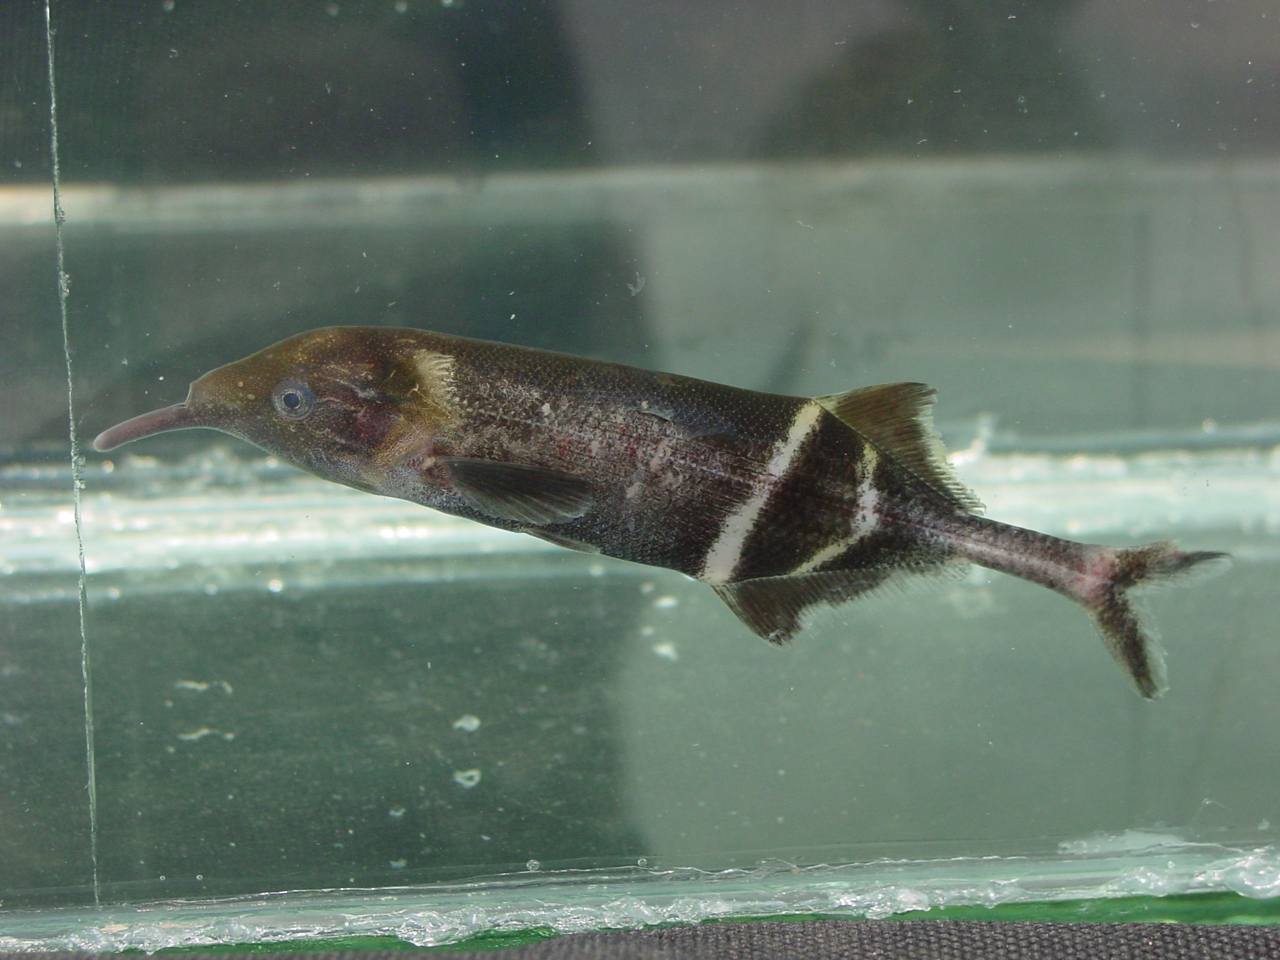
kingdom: Animalia
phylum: Chordata
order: Osteoglossiformes
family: Mormyridae
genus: Gnathonemus
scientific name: Gnathonemus petersii
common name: Elephantnose fish
